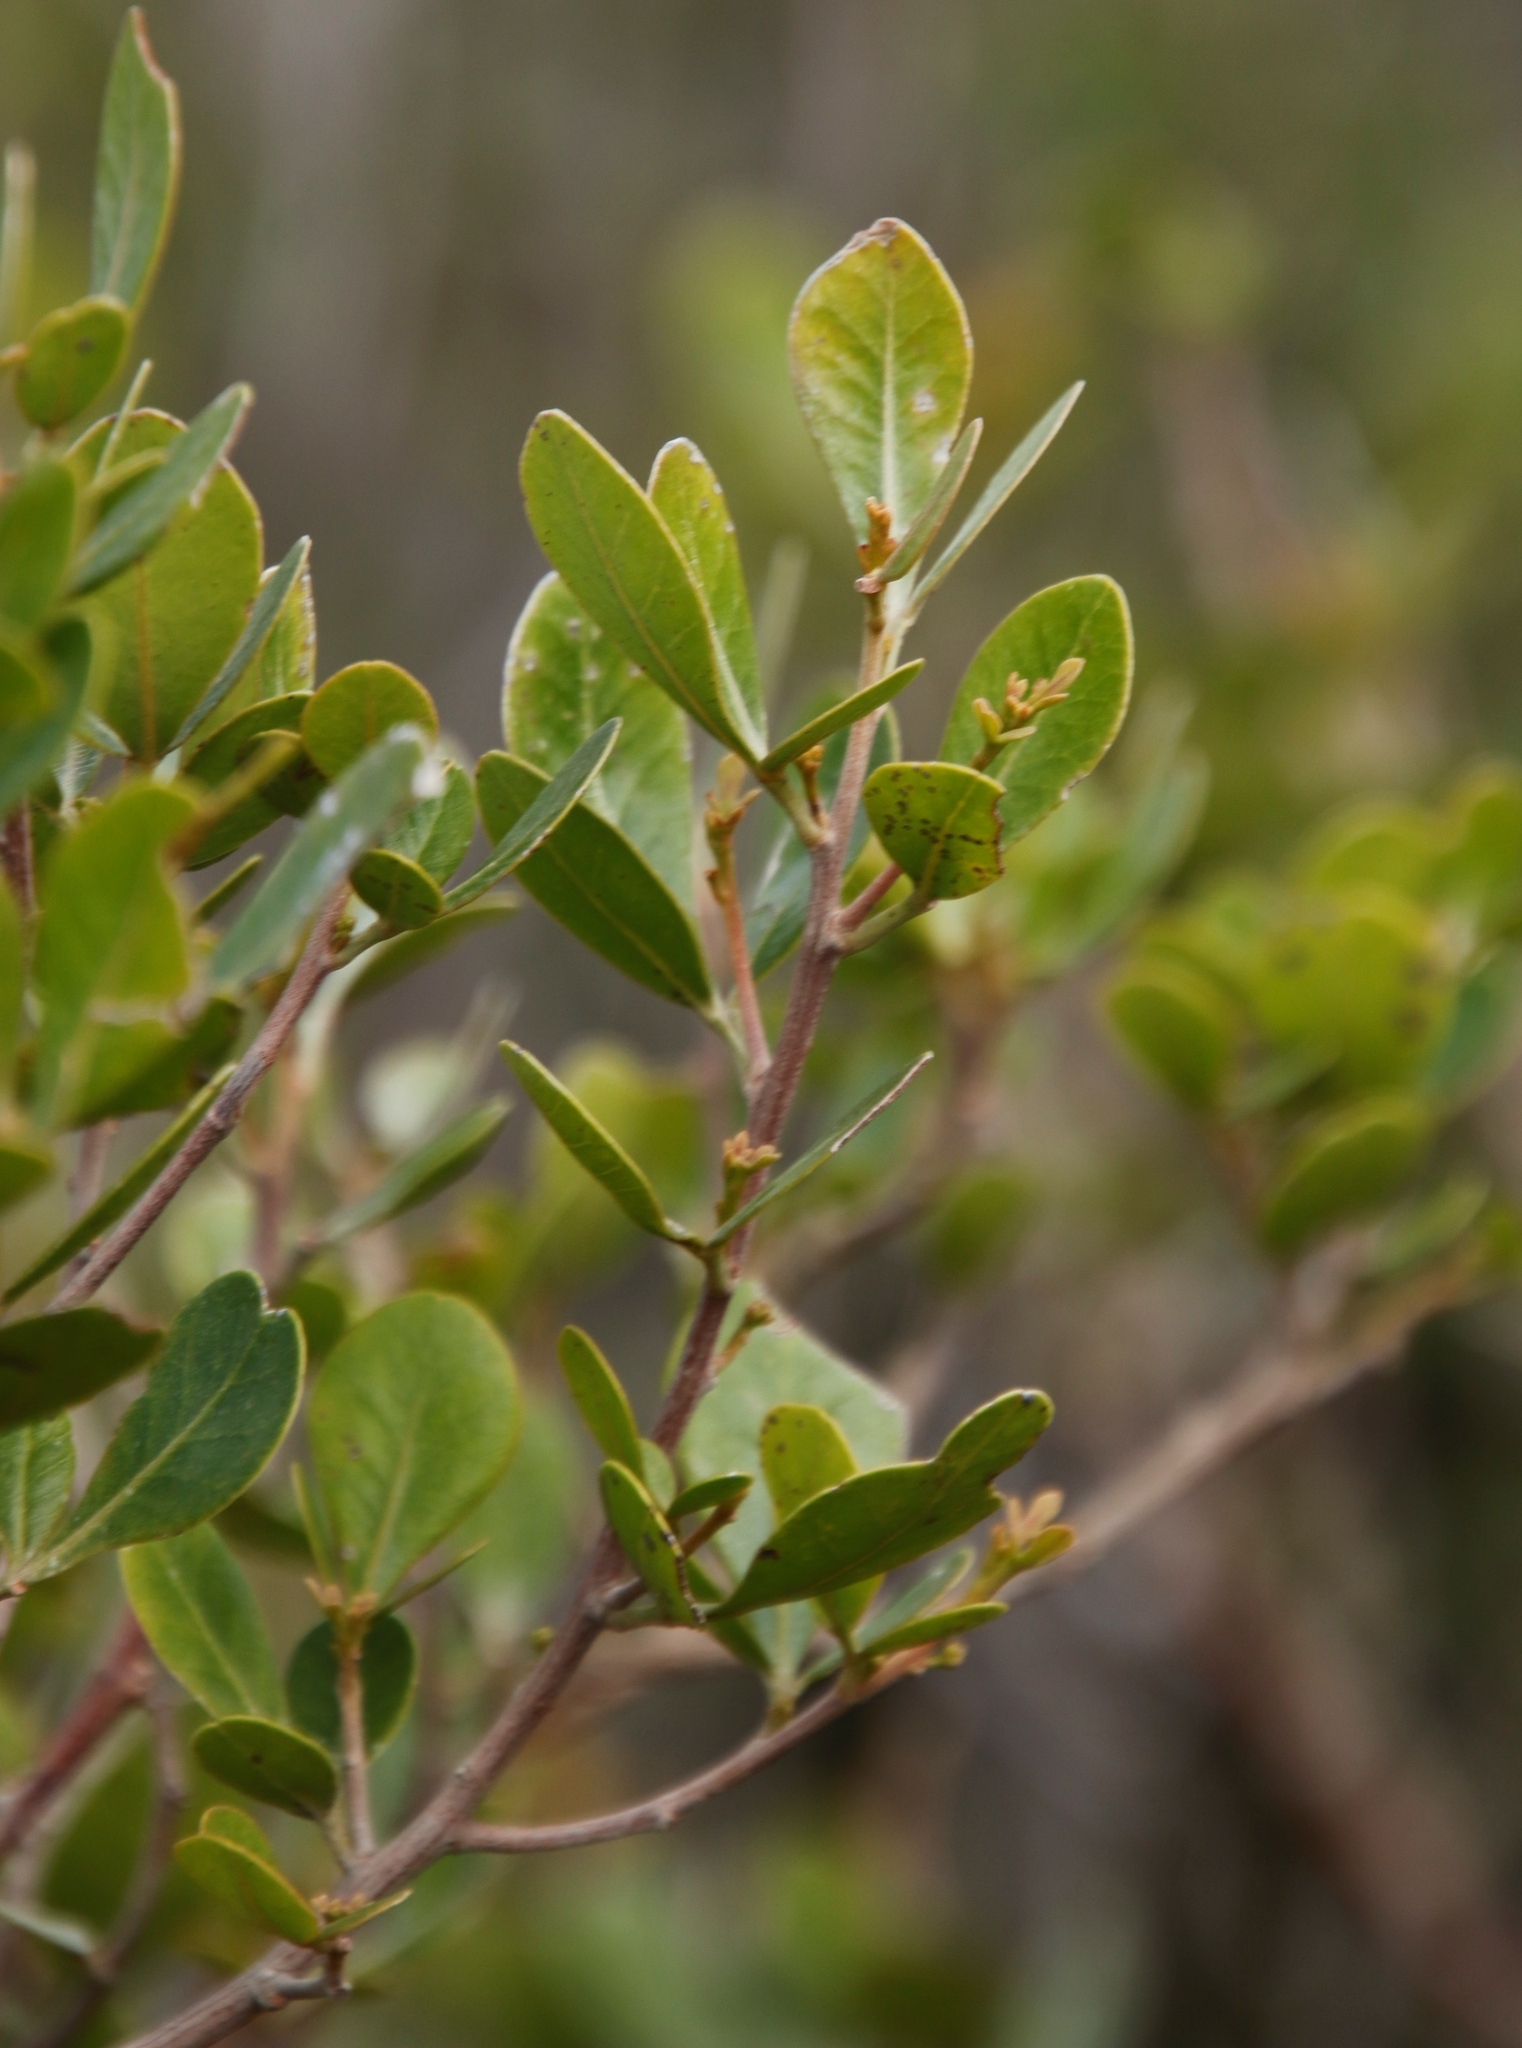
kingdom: Plantae
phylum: Tracheophyta
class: Magnoliopsida
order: Sapindales
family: Anacardiaceae
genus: Searsia
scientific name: Searsia lucida
